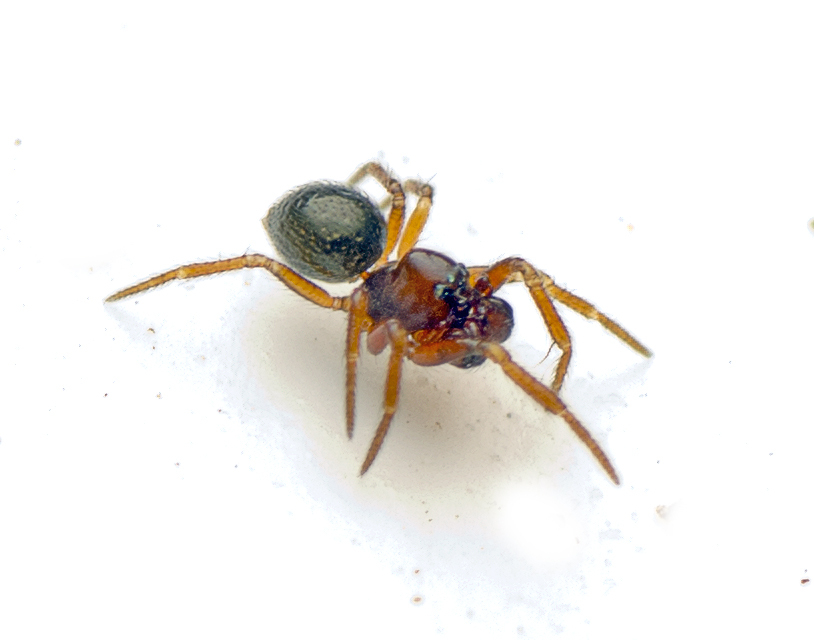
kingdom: Animalia
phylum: Arthropoda
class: Arachnida
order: Araneae
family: Anapidae
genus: Raveniella
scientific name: Raveniella luteola
